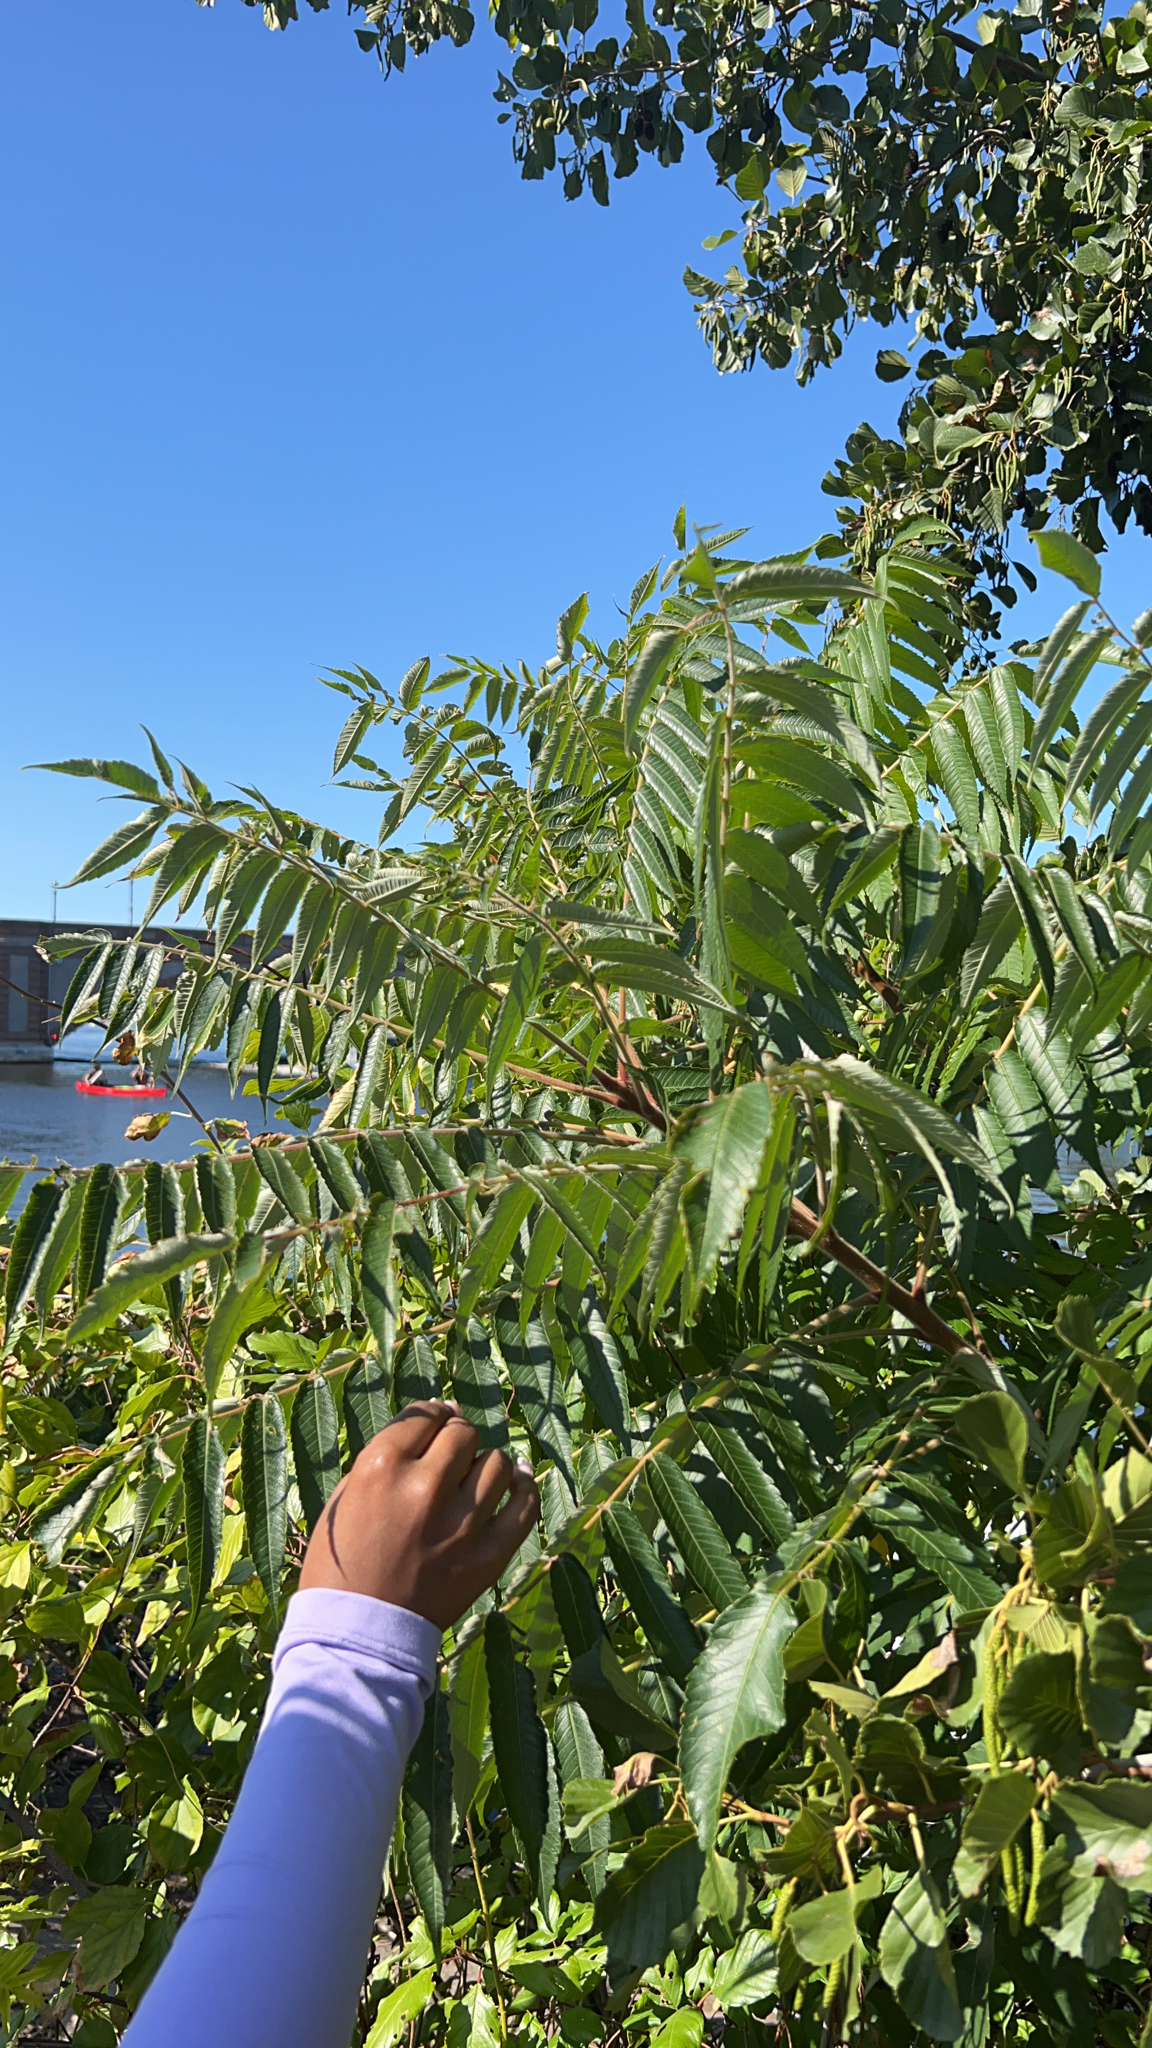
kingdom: Plantae
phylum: Tracheophyta
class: Magnoliopsida
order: Sapindales
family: Anacardiaceae
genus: Rhus
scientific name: Rhus typhina
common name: Staghorn sumac
